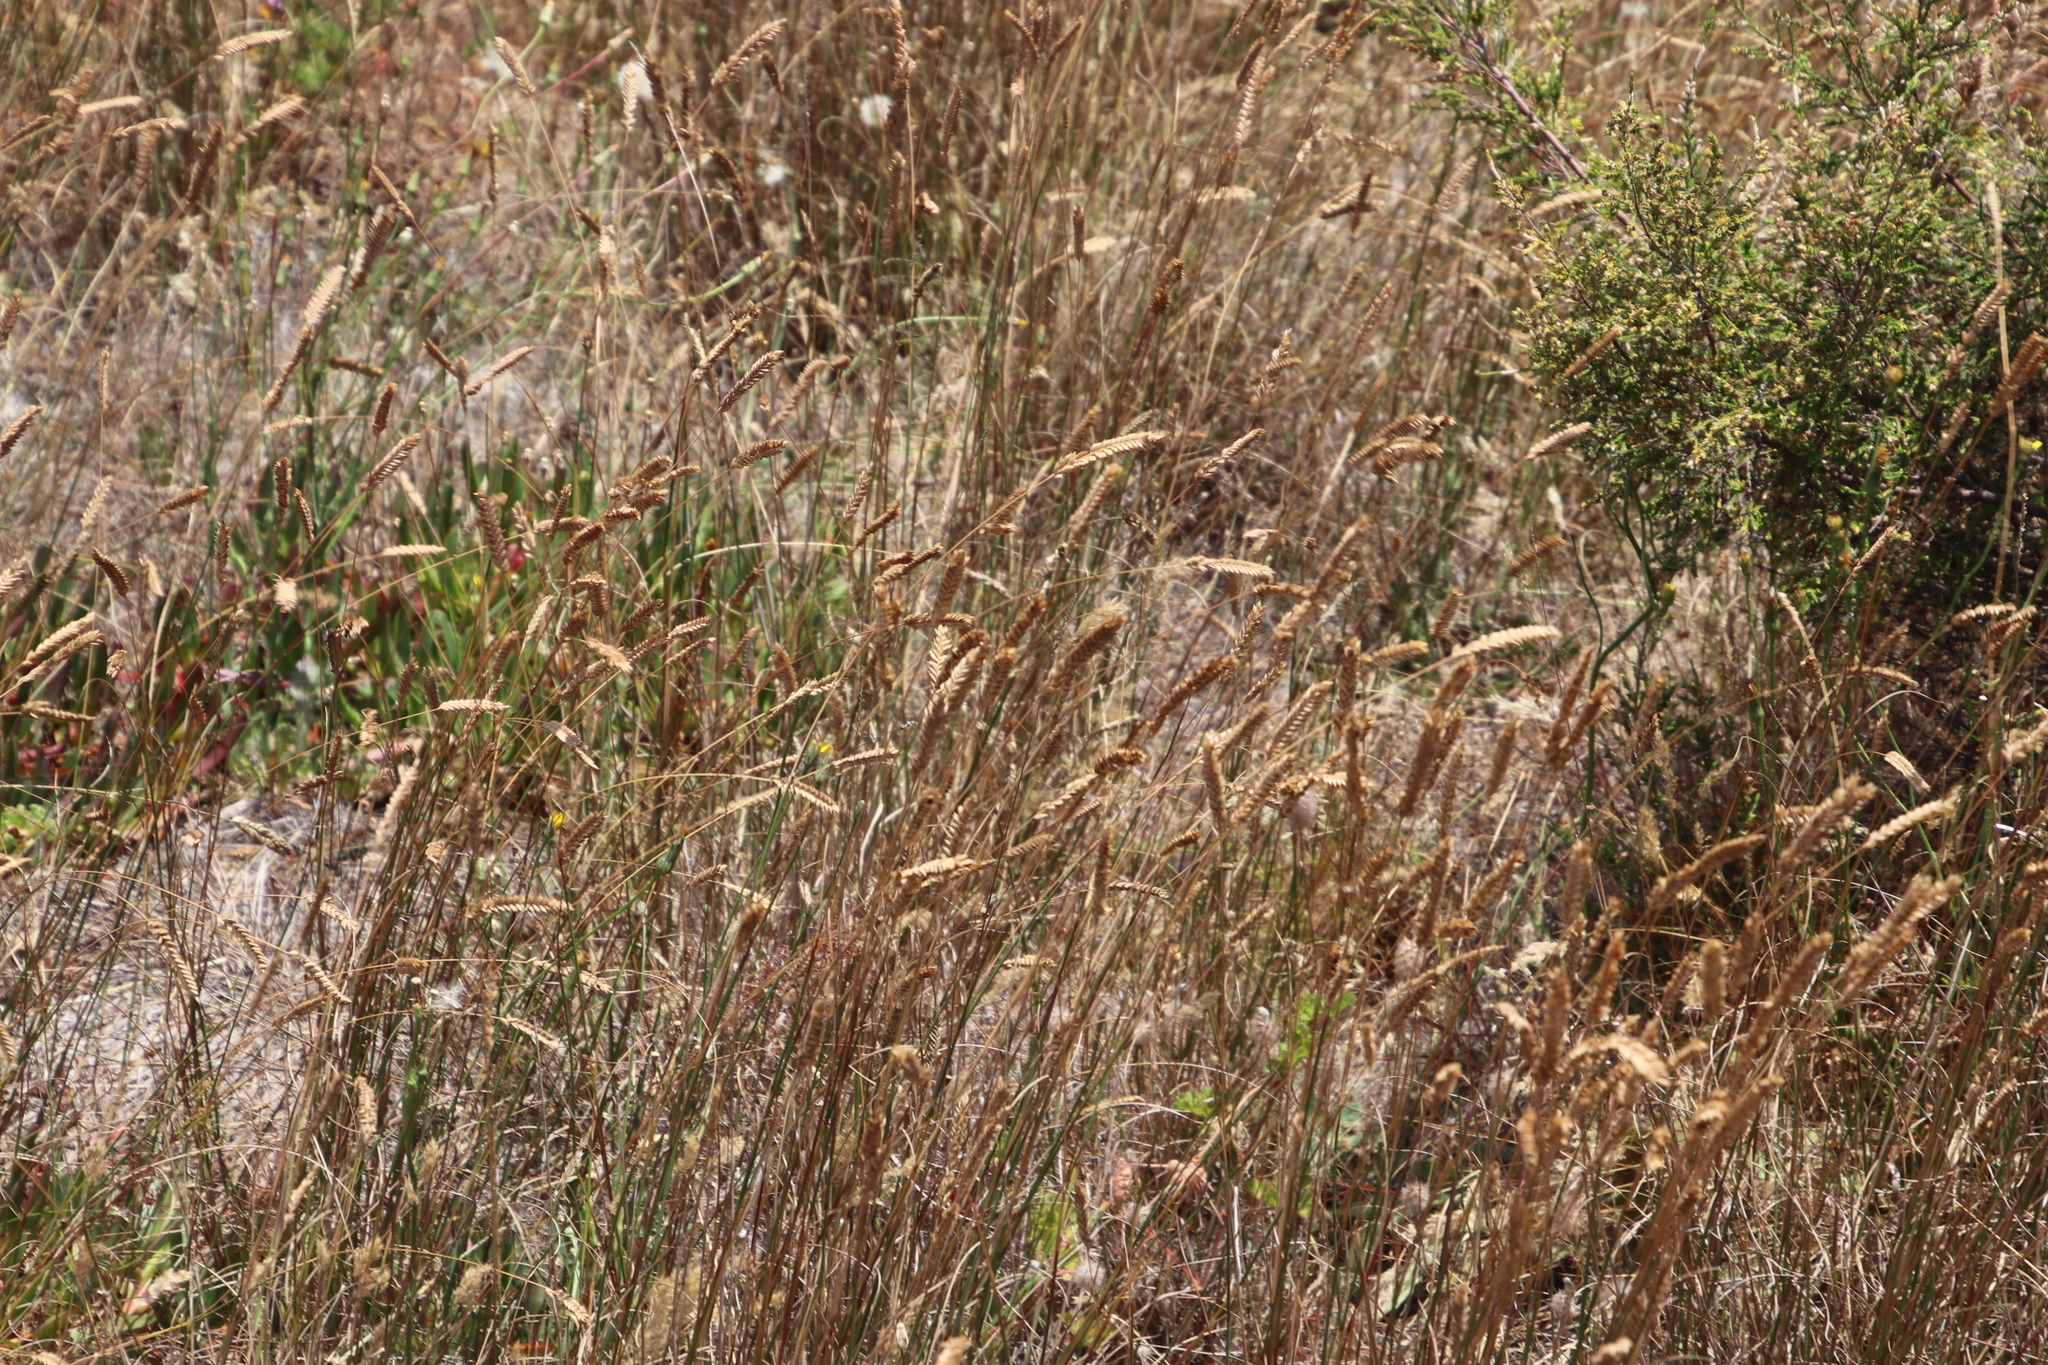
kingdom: Plantae
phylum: Tracheophyta
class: Liliopsida
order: Poales
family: Poaceae
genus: Tribolium
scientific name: Tribolium uniolae
